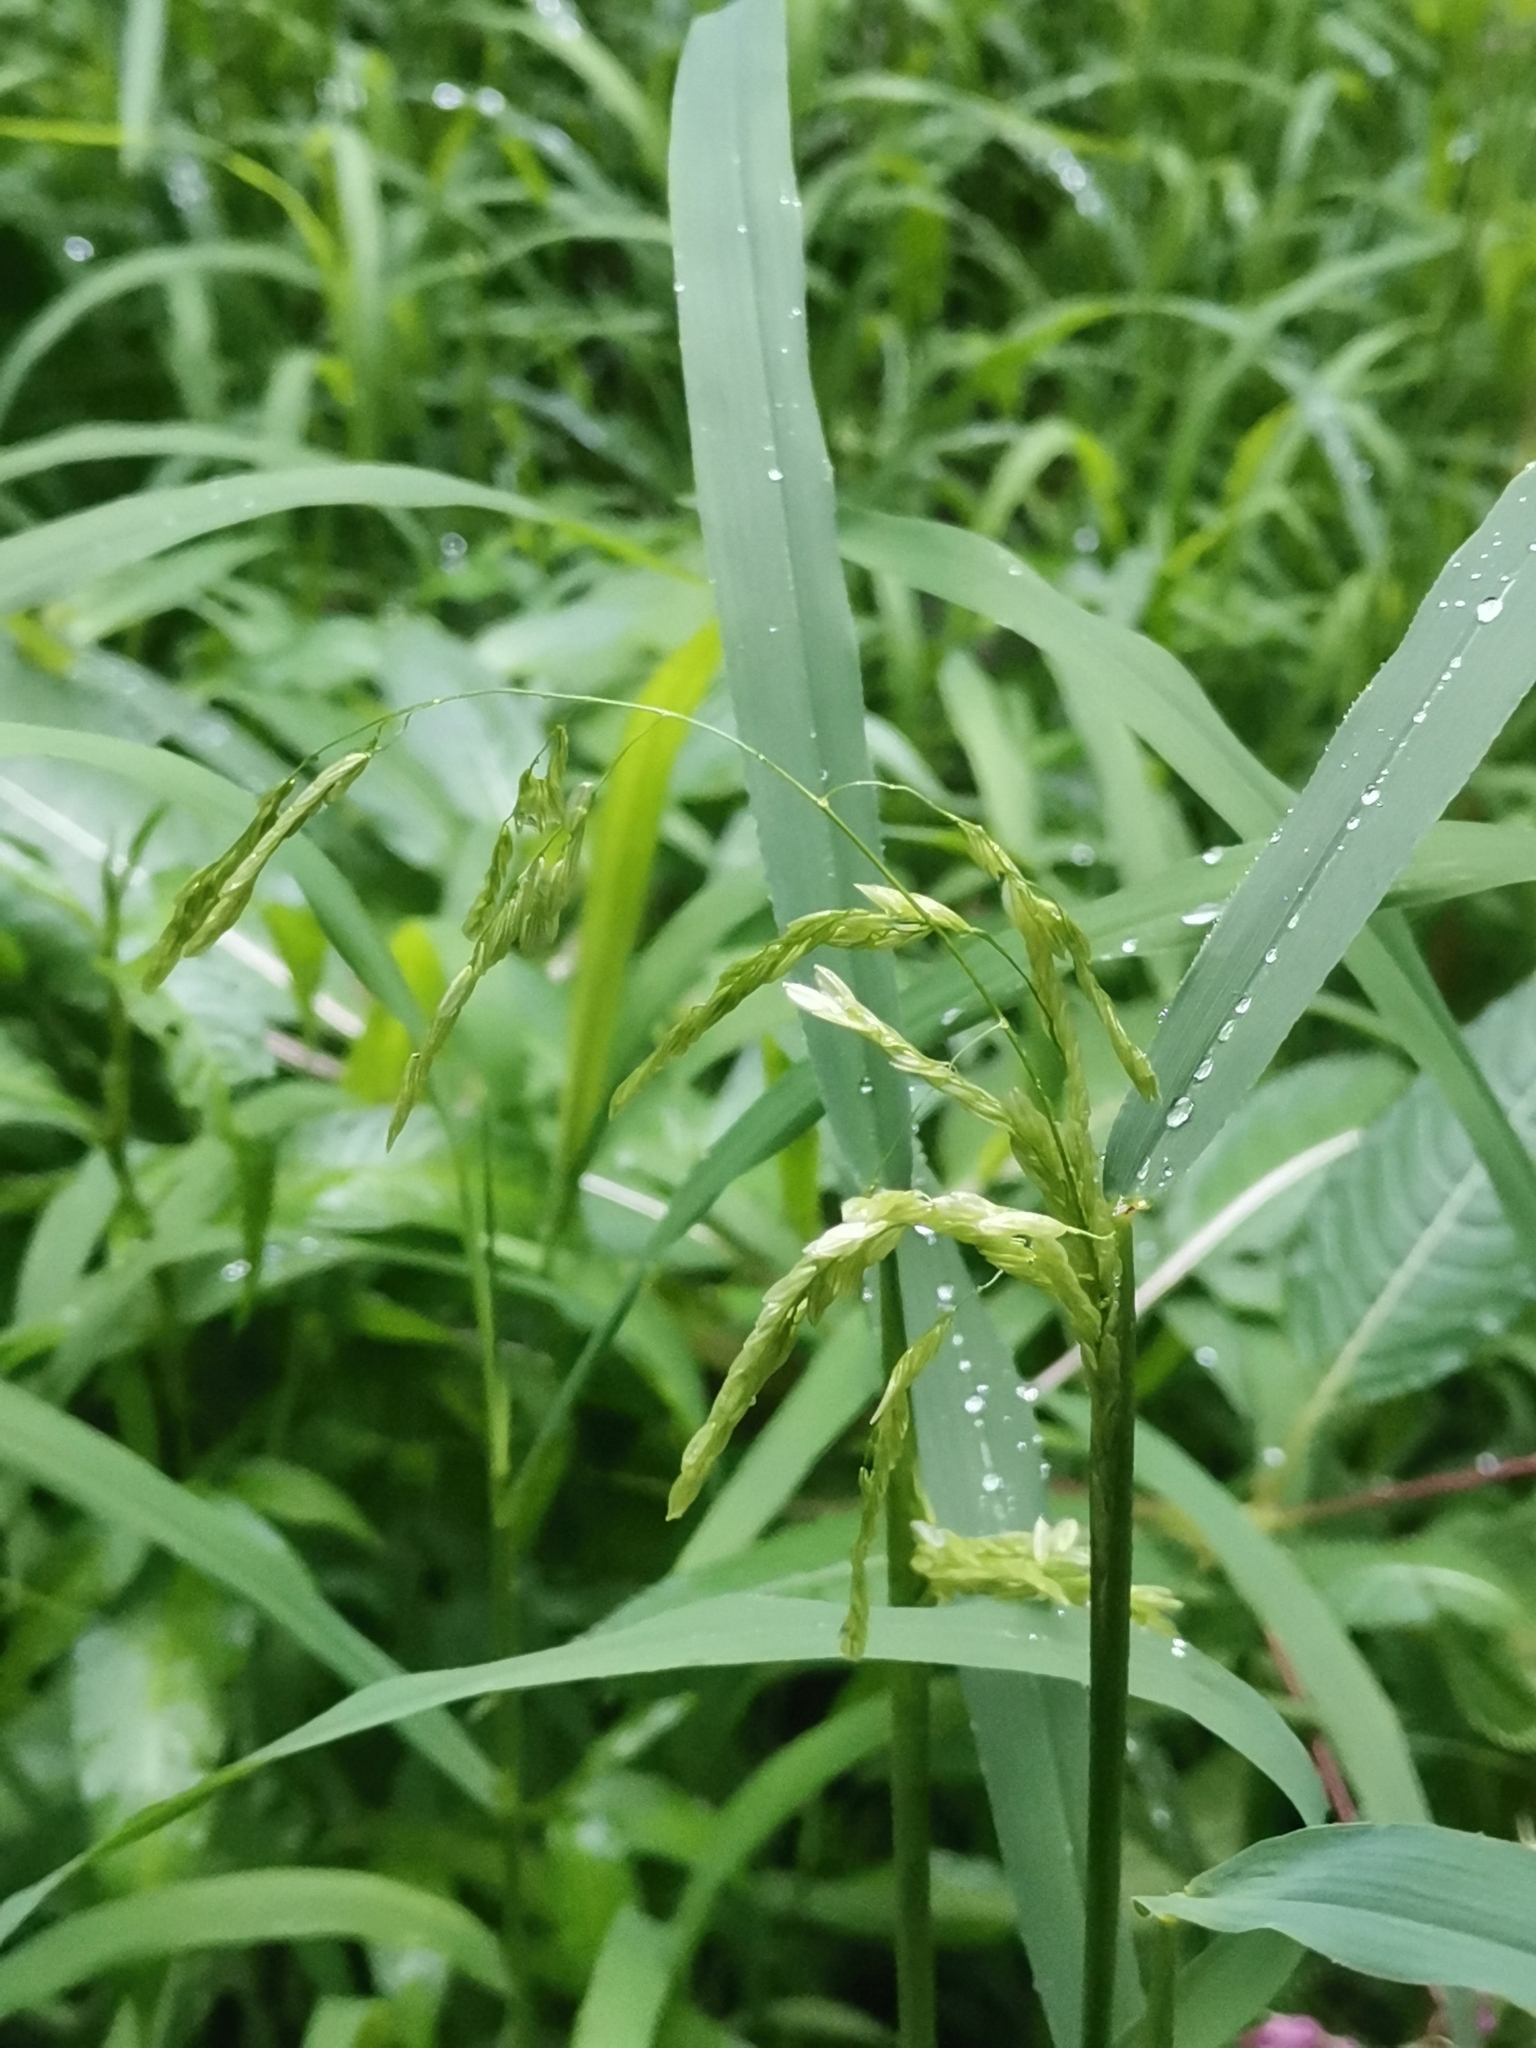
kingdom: Plantae
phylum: Tracheophyta
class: Liliopsida
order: Poales
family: Poaceae
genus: Leersia
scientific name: Leersia oryzoides
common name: Cut-grass
